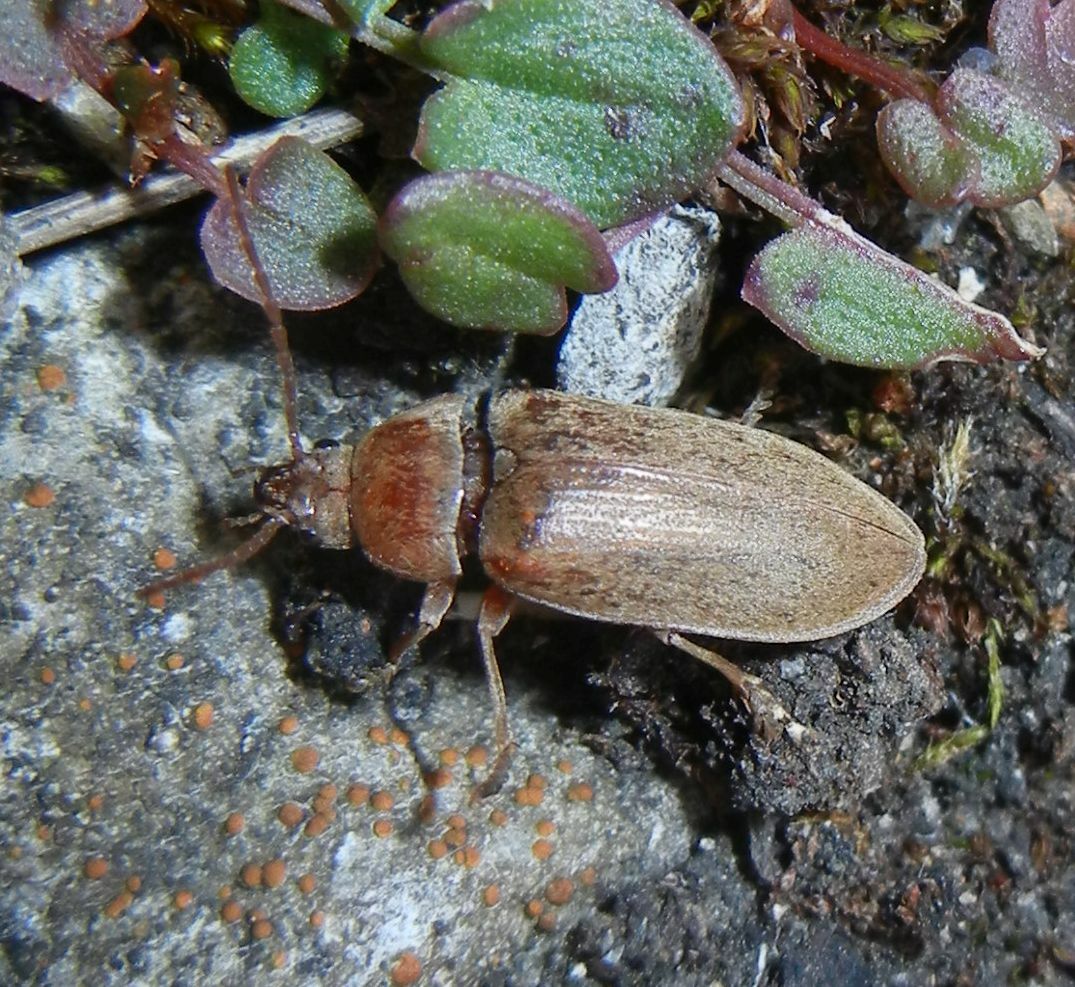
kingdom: Animalia
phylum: Arthropoda
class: Insecta
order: Coleoptera
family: Dascillidae
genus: Dascillus
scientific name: Dascillus cervinus
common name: Orchid beetle
